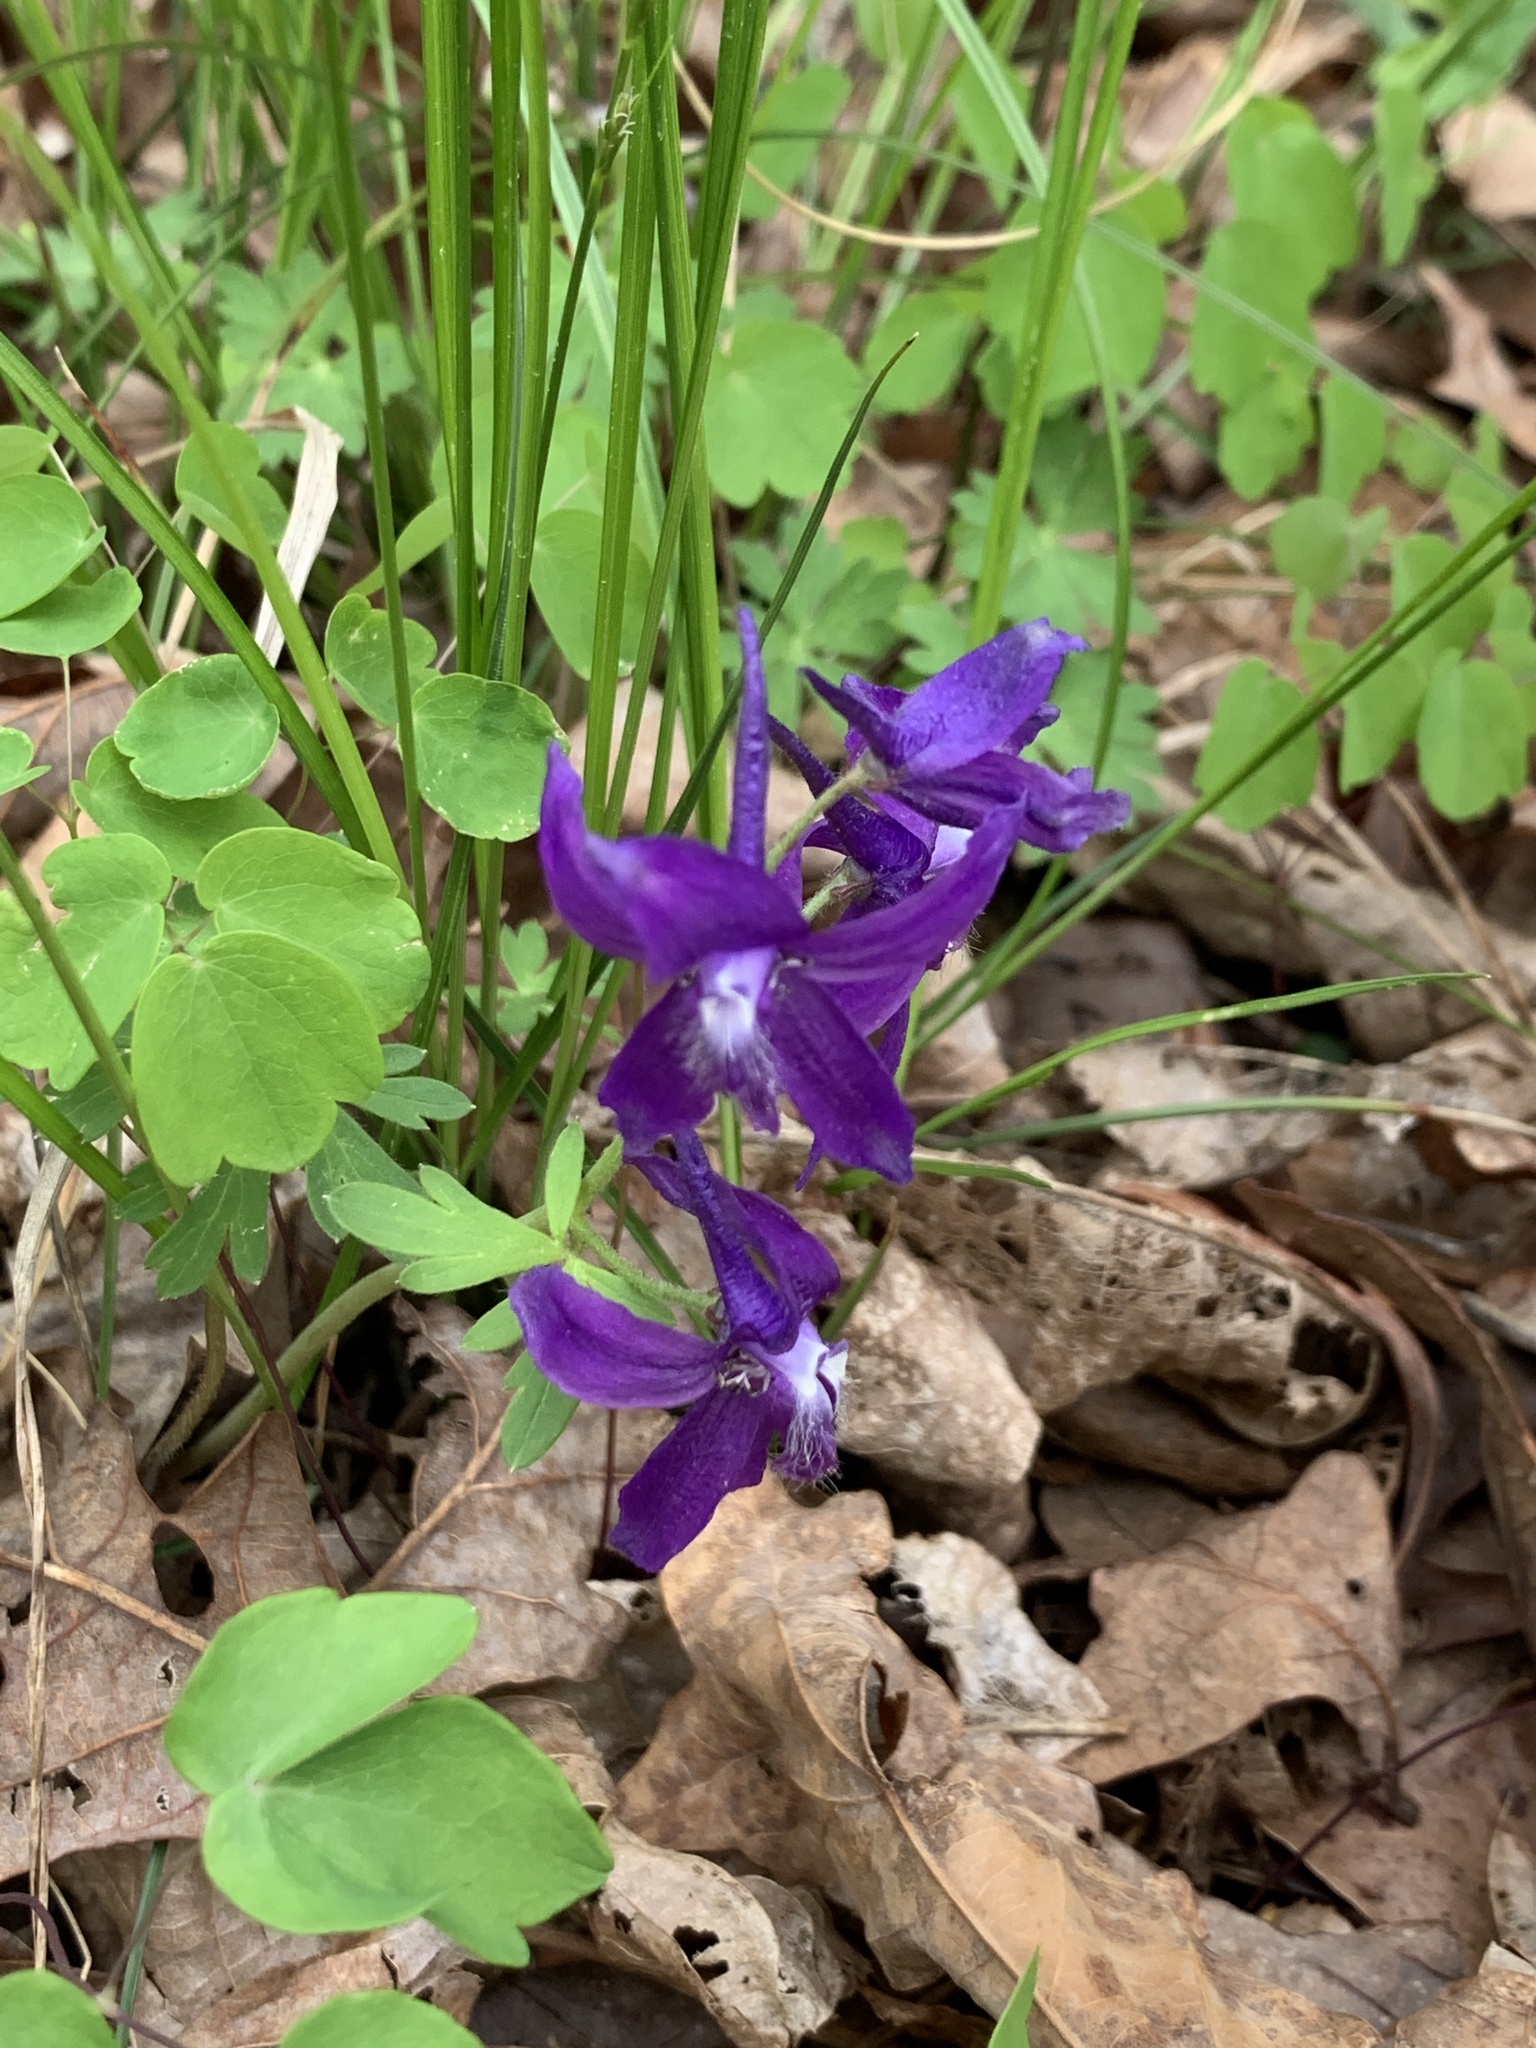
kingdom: Plantae
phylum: Tracheophyta
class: Magnoliopsida
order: Ranunculales
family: Ranunculaceae
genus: Delphinium
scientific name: Delphinium tricorne
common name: Dwarf larkspur
